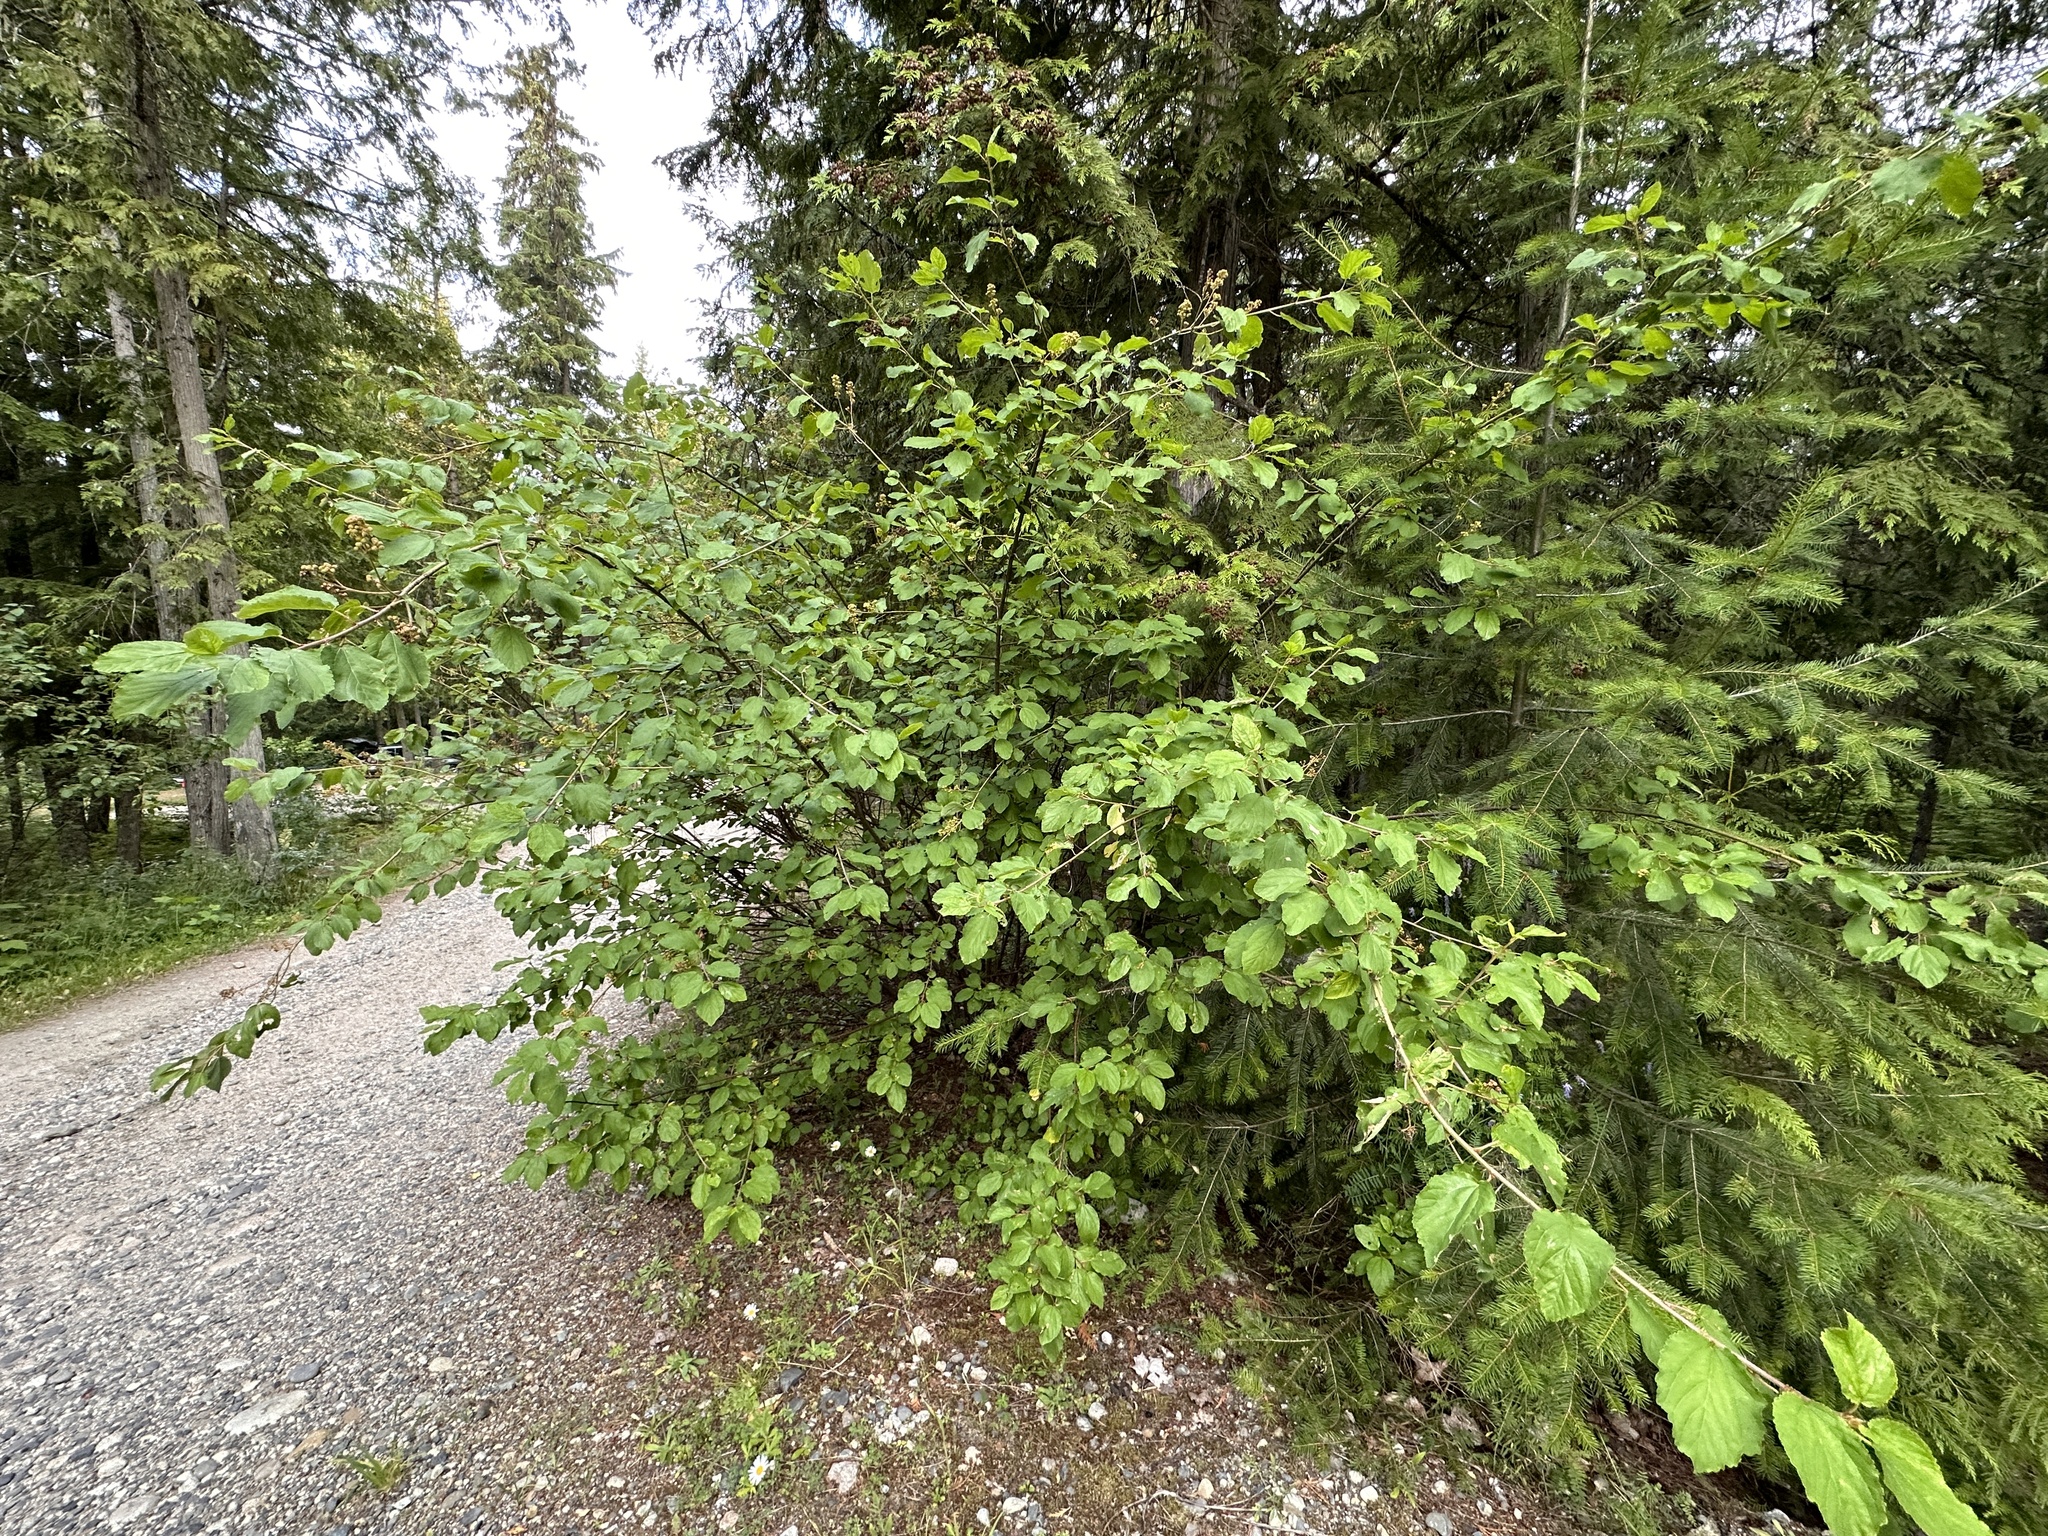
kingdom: Plantae
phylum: Tracheophyta
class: Magnoliopsida
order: Rosales
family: Rhamnaceae
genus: Ceanothus
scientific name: Ceanothus sanguineus
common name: Teatree
